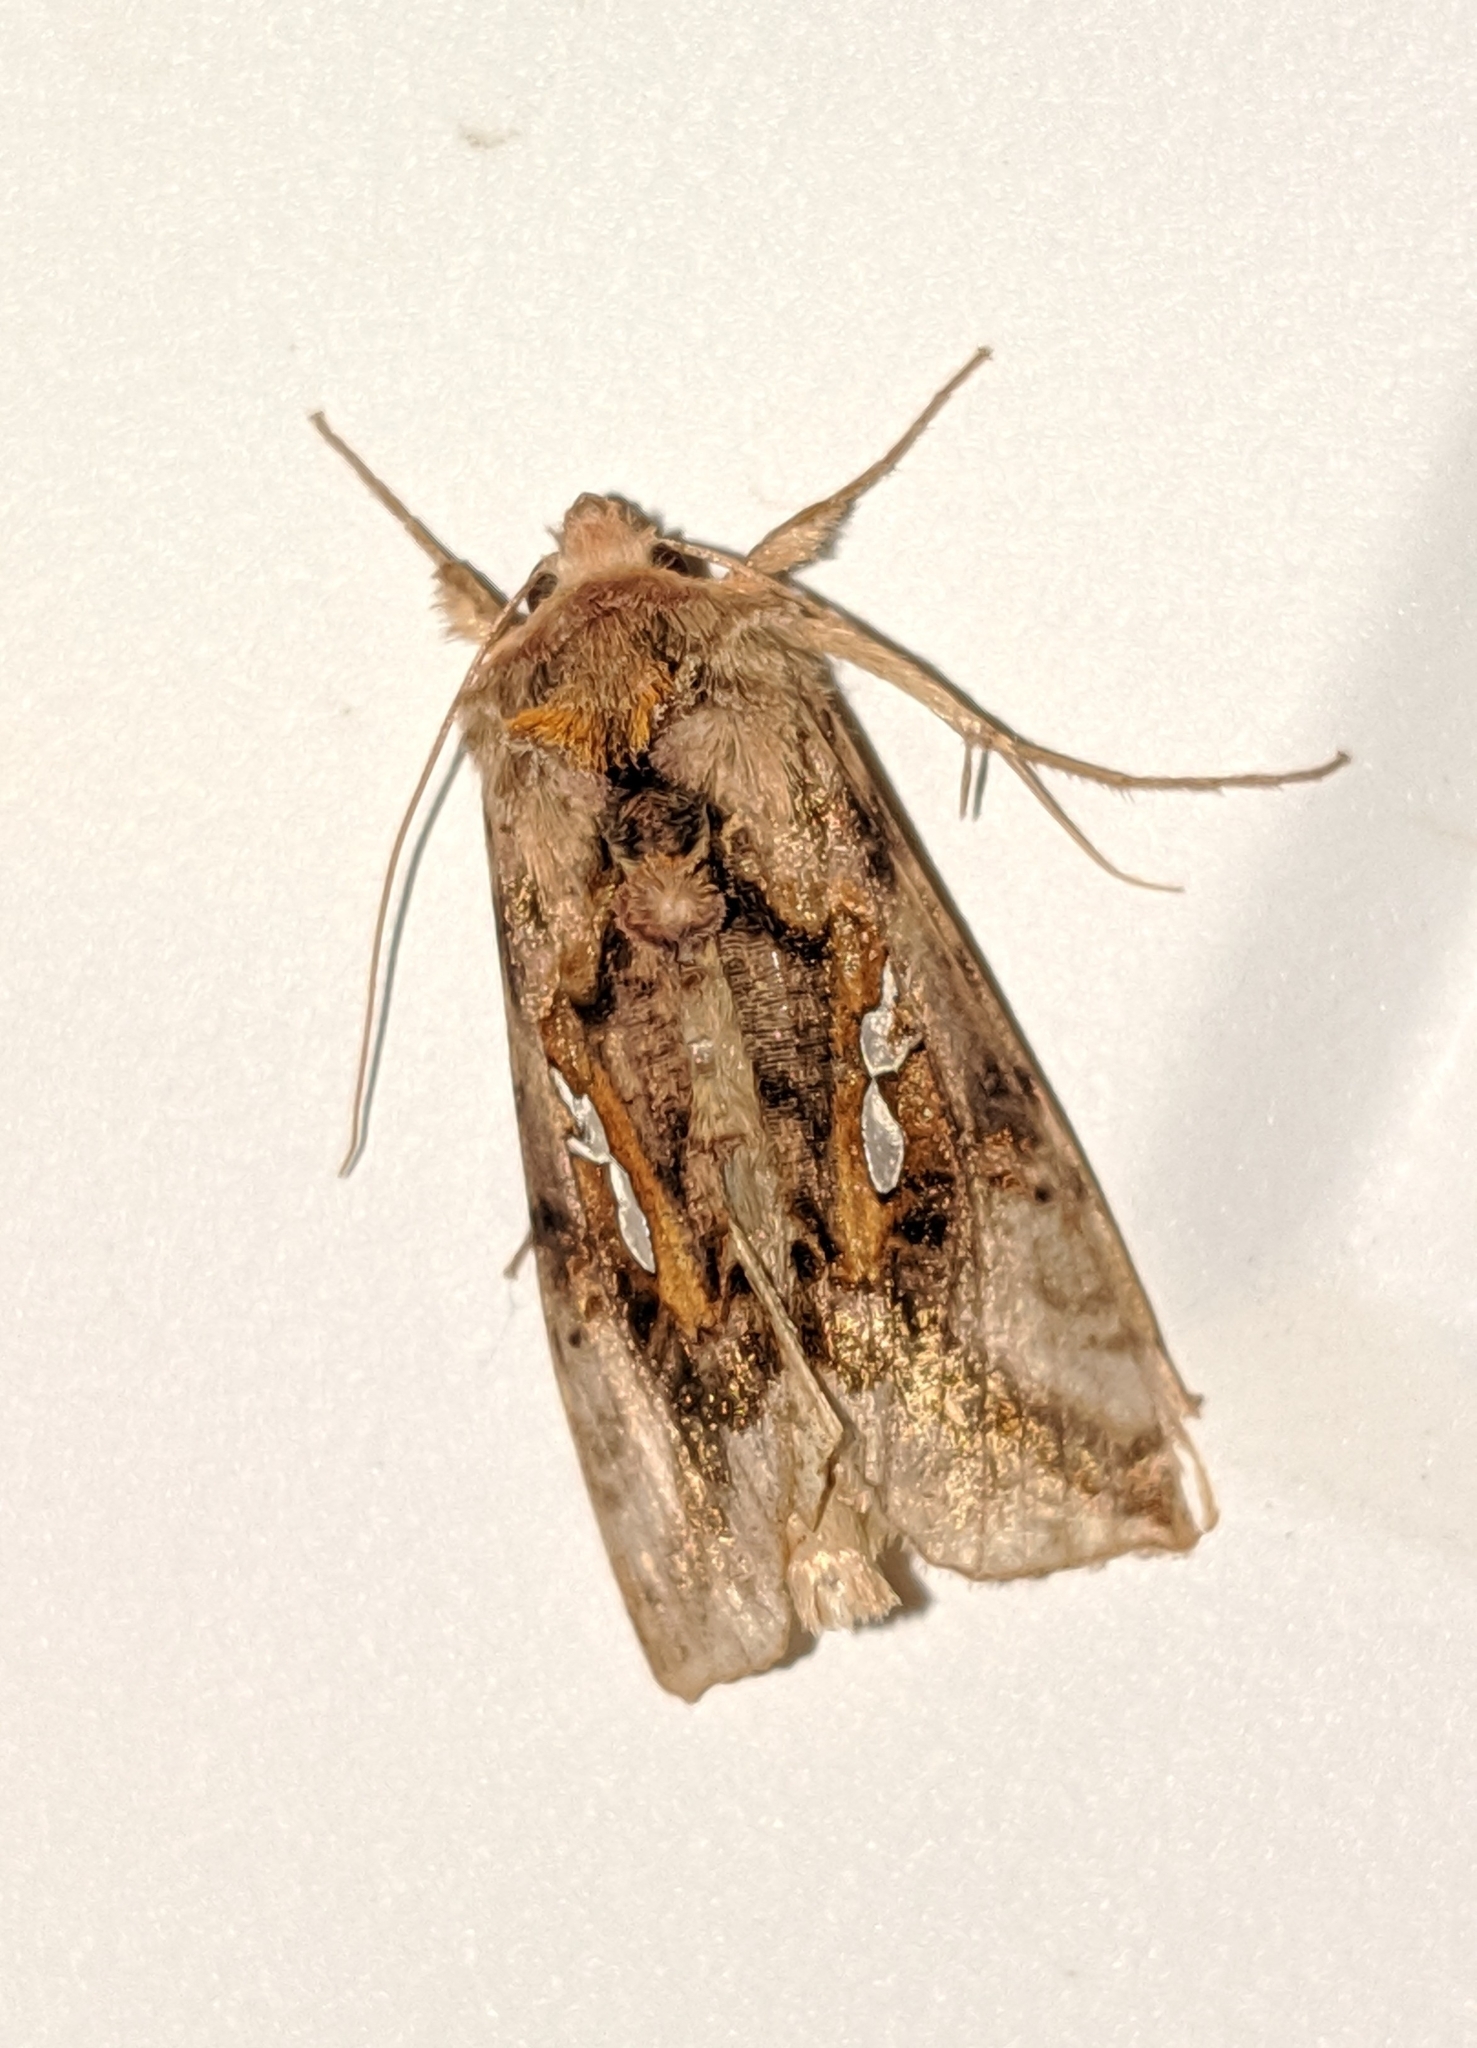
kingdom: Animalia
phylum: Arthropoda
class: Insecta
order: Lepidoptera
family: Noctuidae
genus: Autographa
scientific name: Autographa bimaculata
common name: Double-spotted spangle
